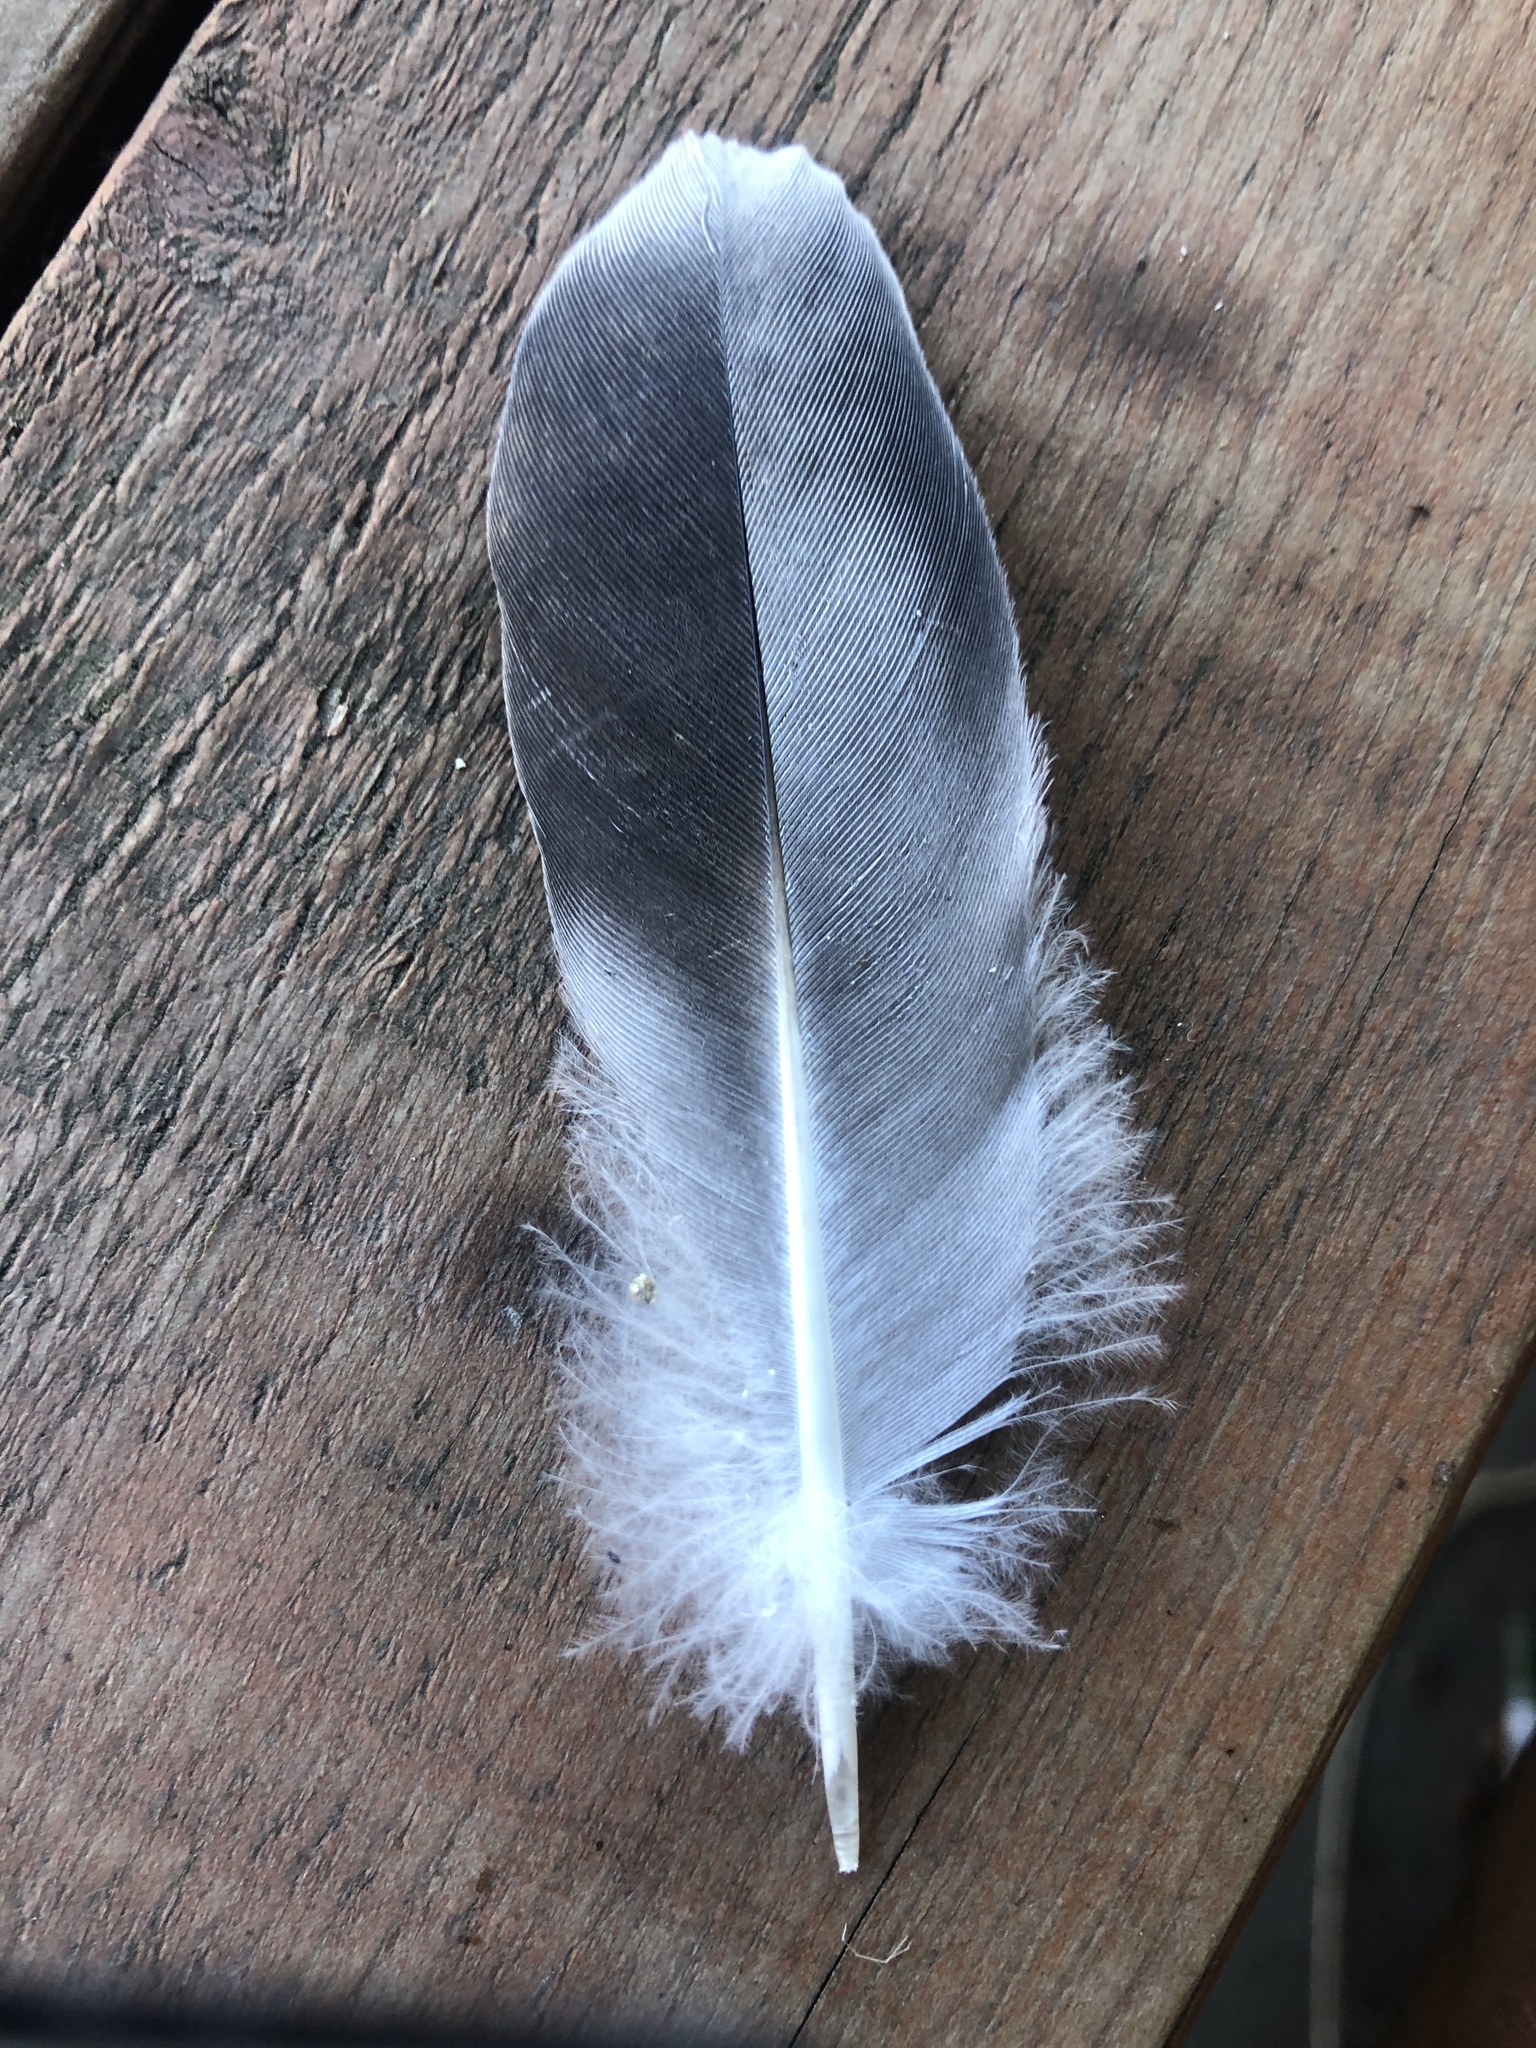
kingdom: Animalia
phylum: Chordata
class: Aves
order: Columbiformes
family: Columbidae
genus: Columba
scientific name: Columba livia
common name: Rock pigeon
